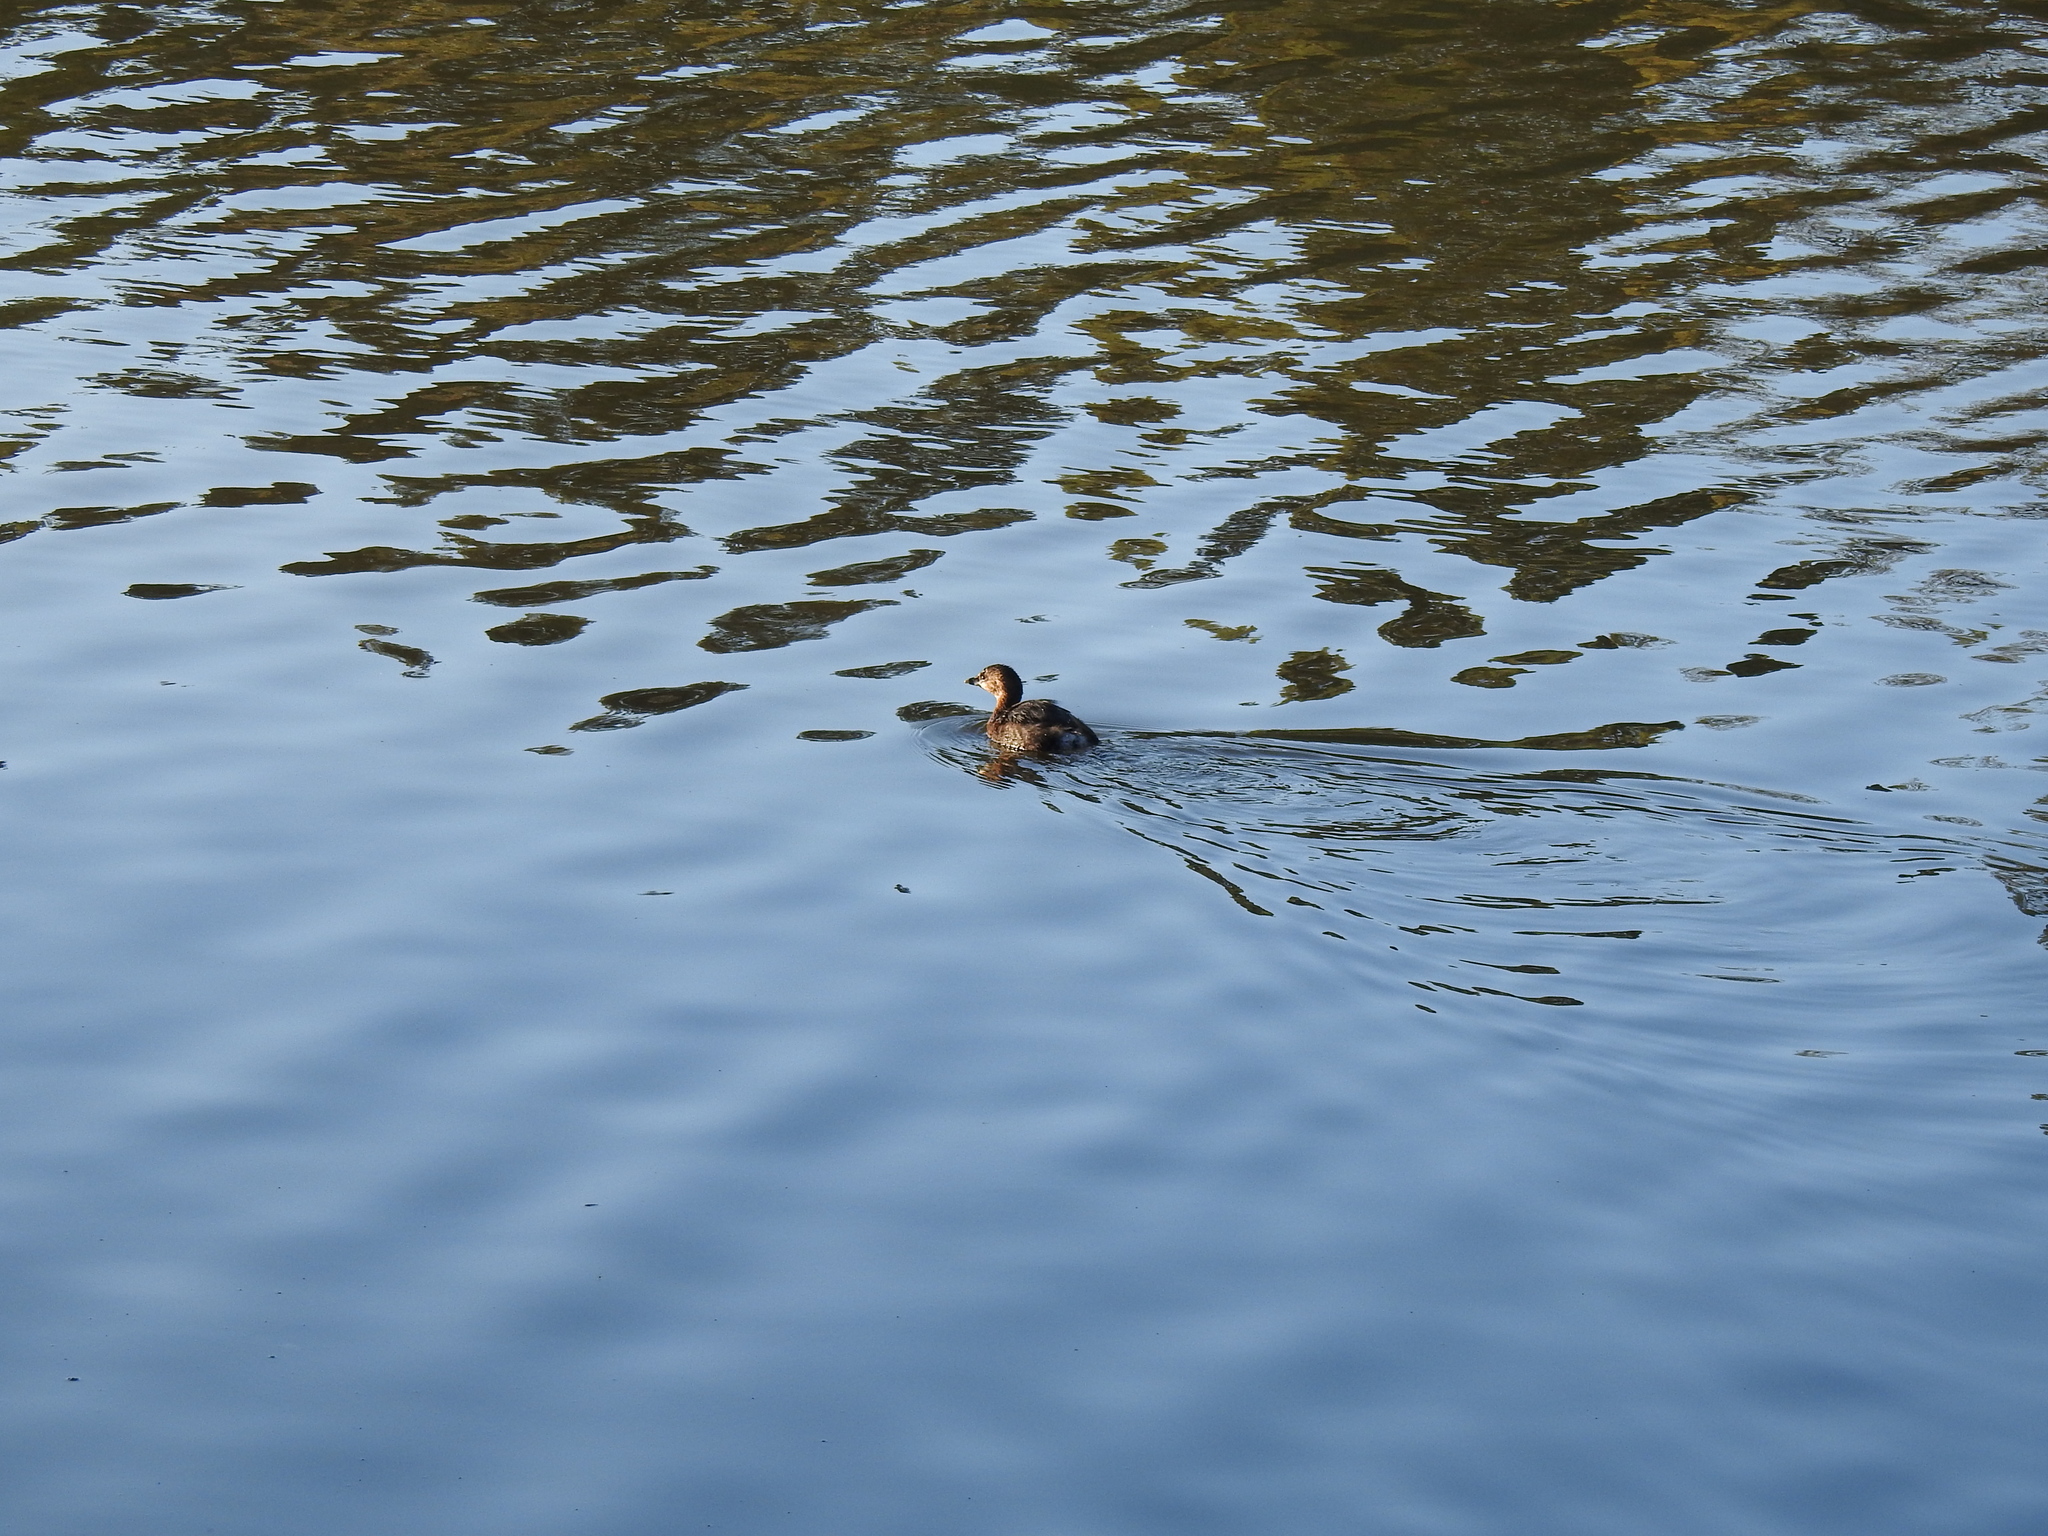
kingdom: Animalia
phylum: Chordata
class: Aves
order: Podicipediformes
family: Podicipedidae
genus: Podilymbus
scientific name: Podilymbus podiceps
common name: Pied-billed grebe
